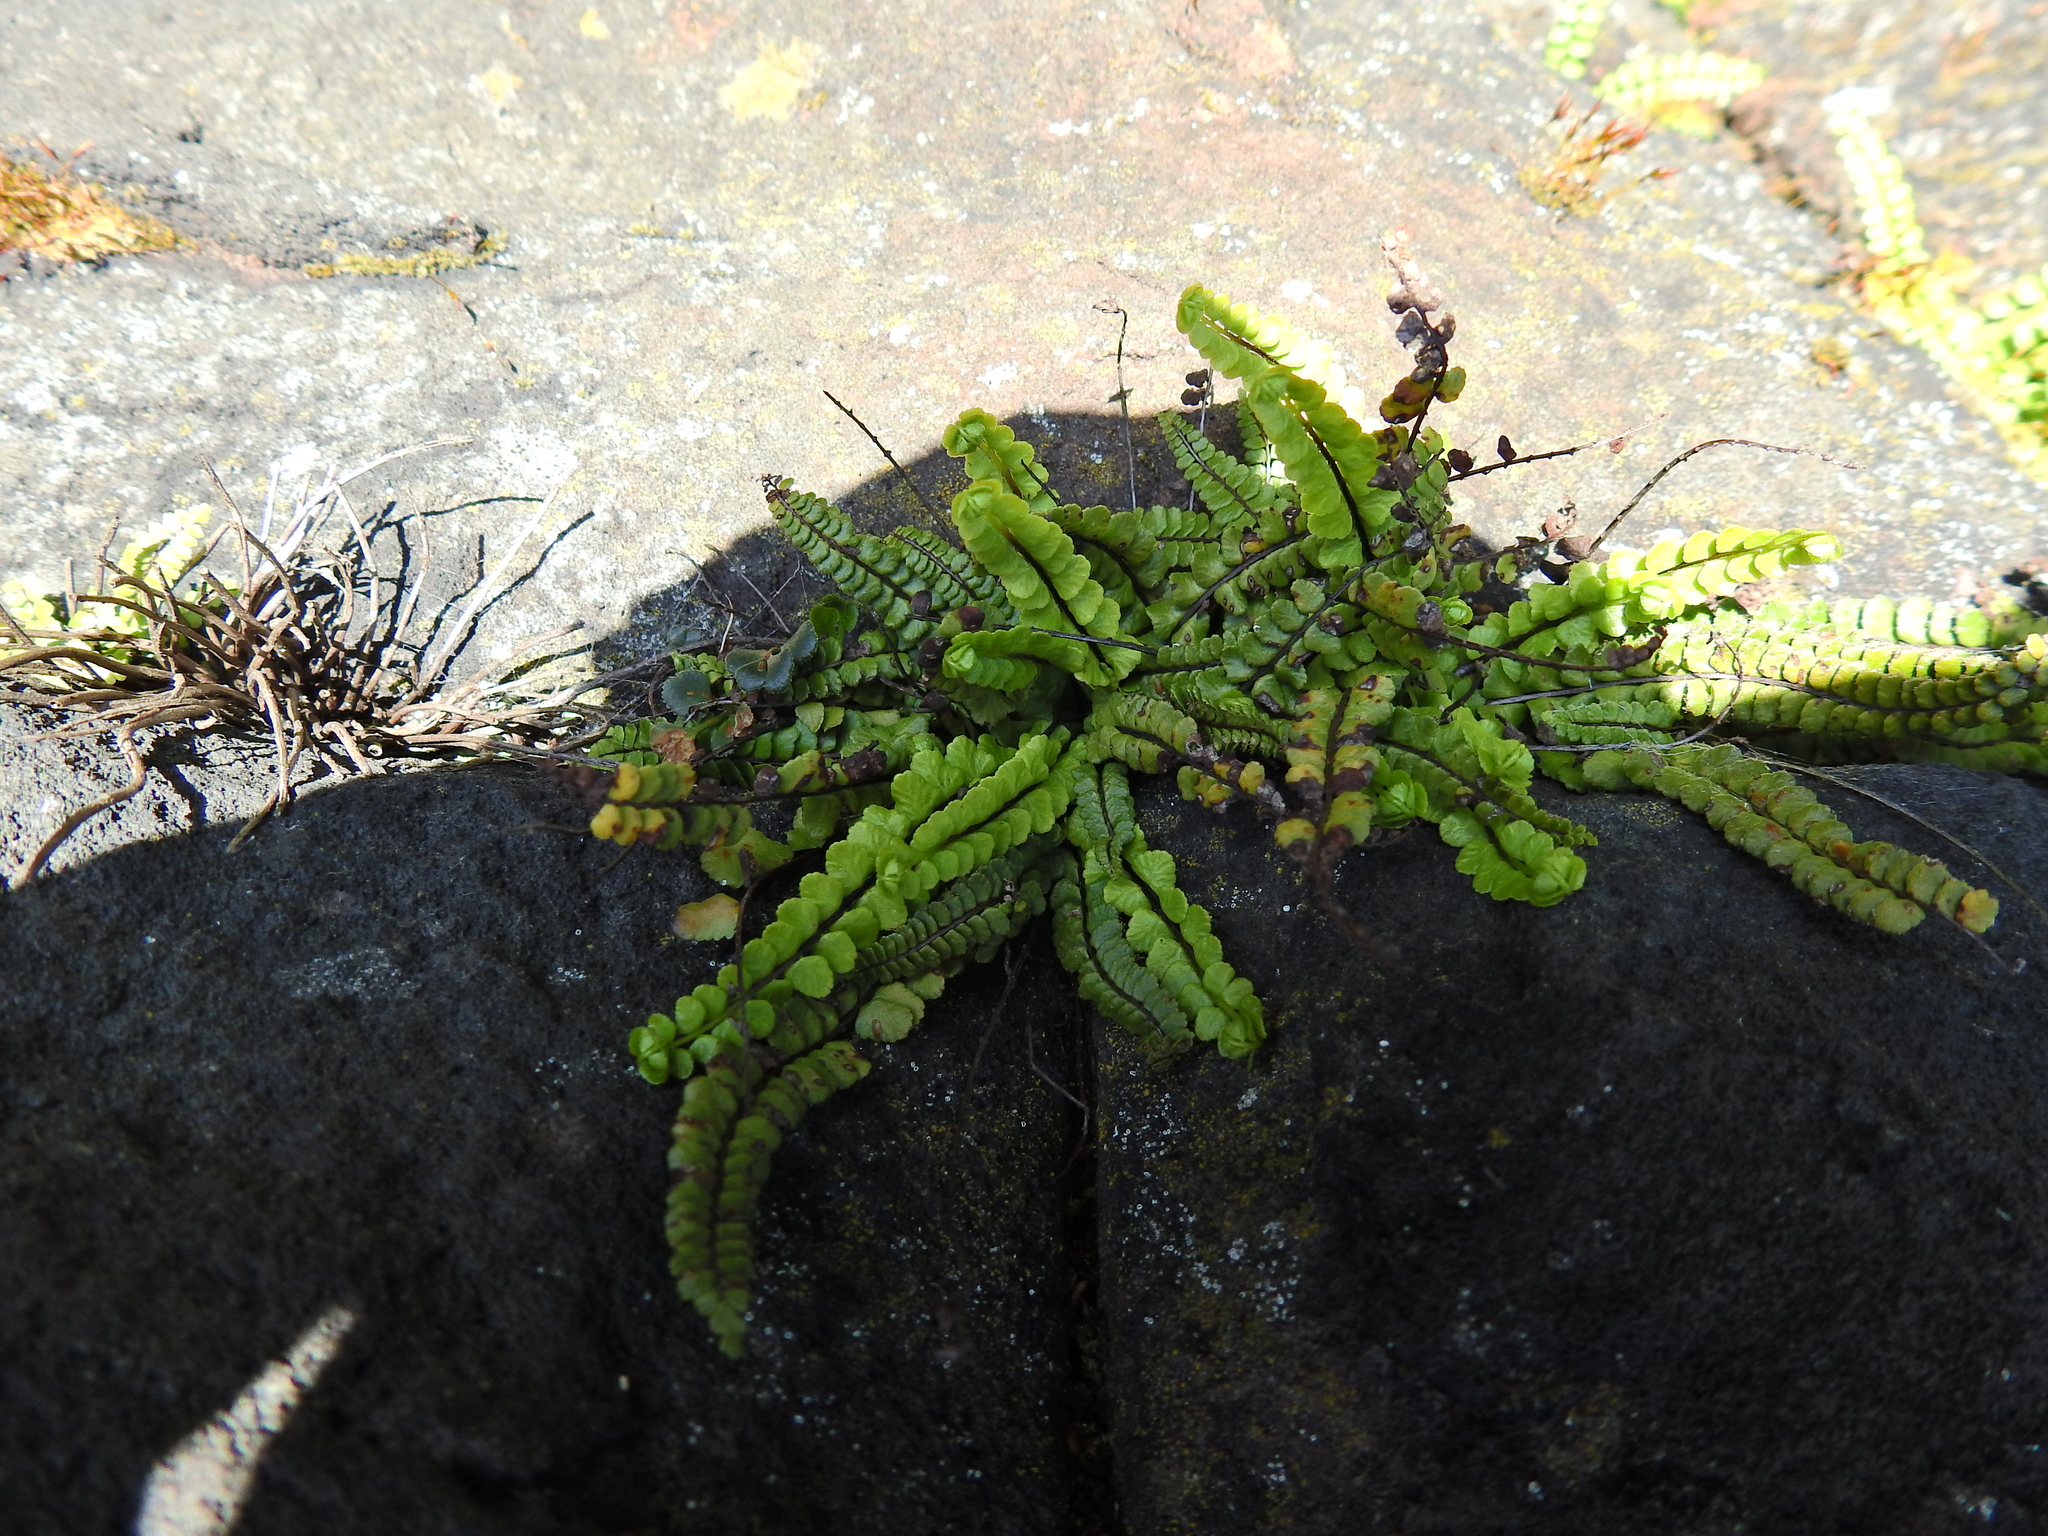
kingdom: Plantae
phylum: Tracheophyta
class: Polypodiopsida
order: Polypodiales
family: Aspleniaceae
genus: Asplenium
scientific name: Asplenium trichomanes
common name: Maidenhair spleenwort
